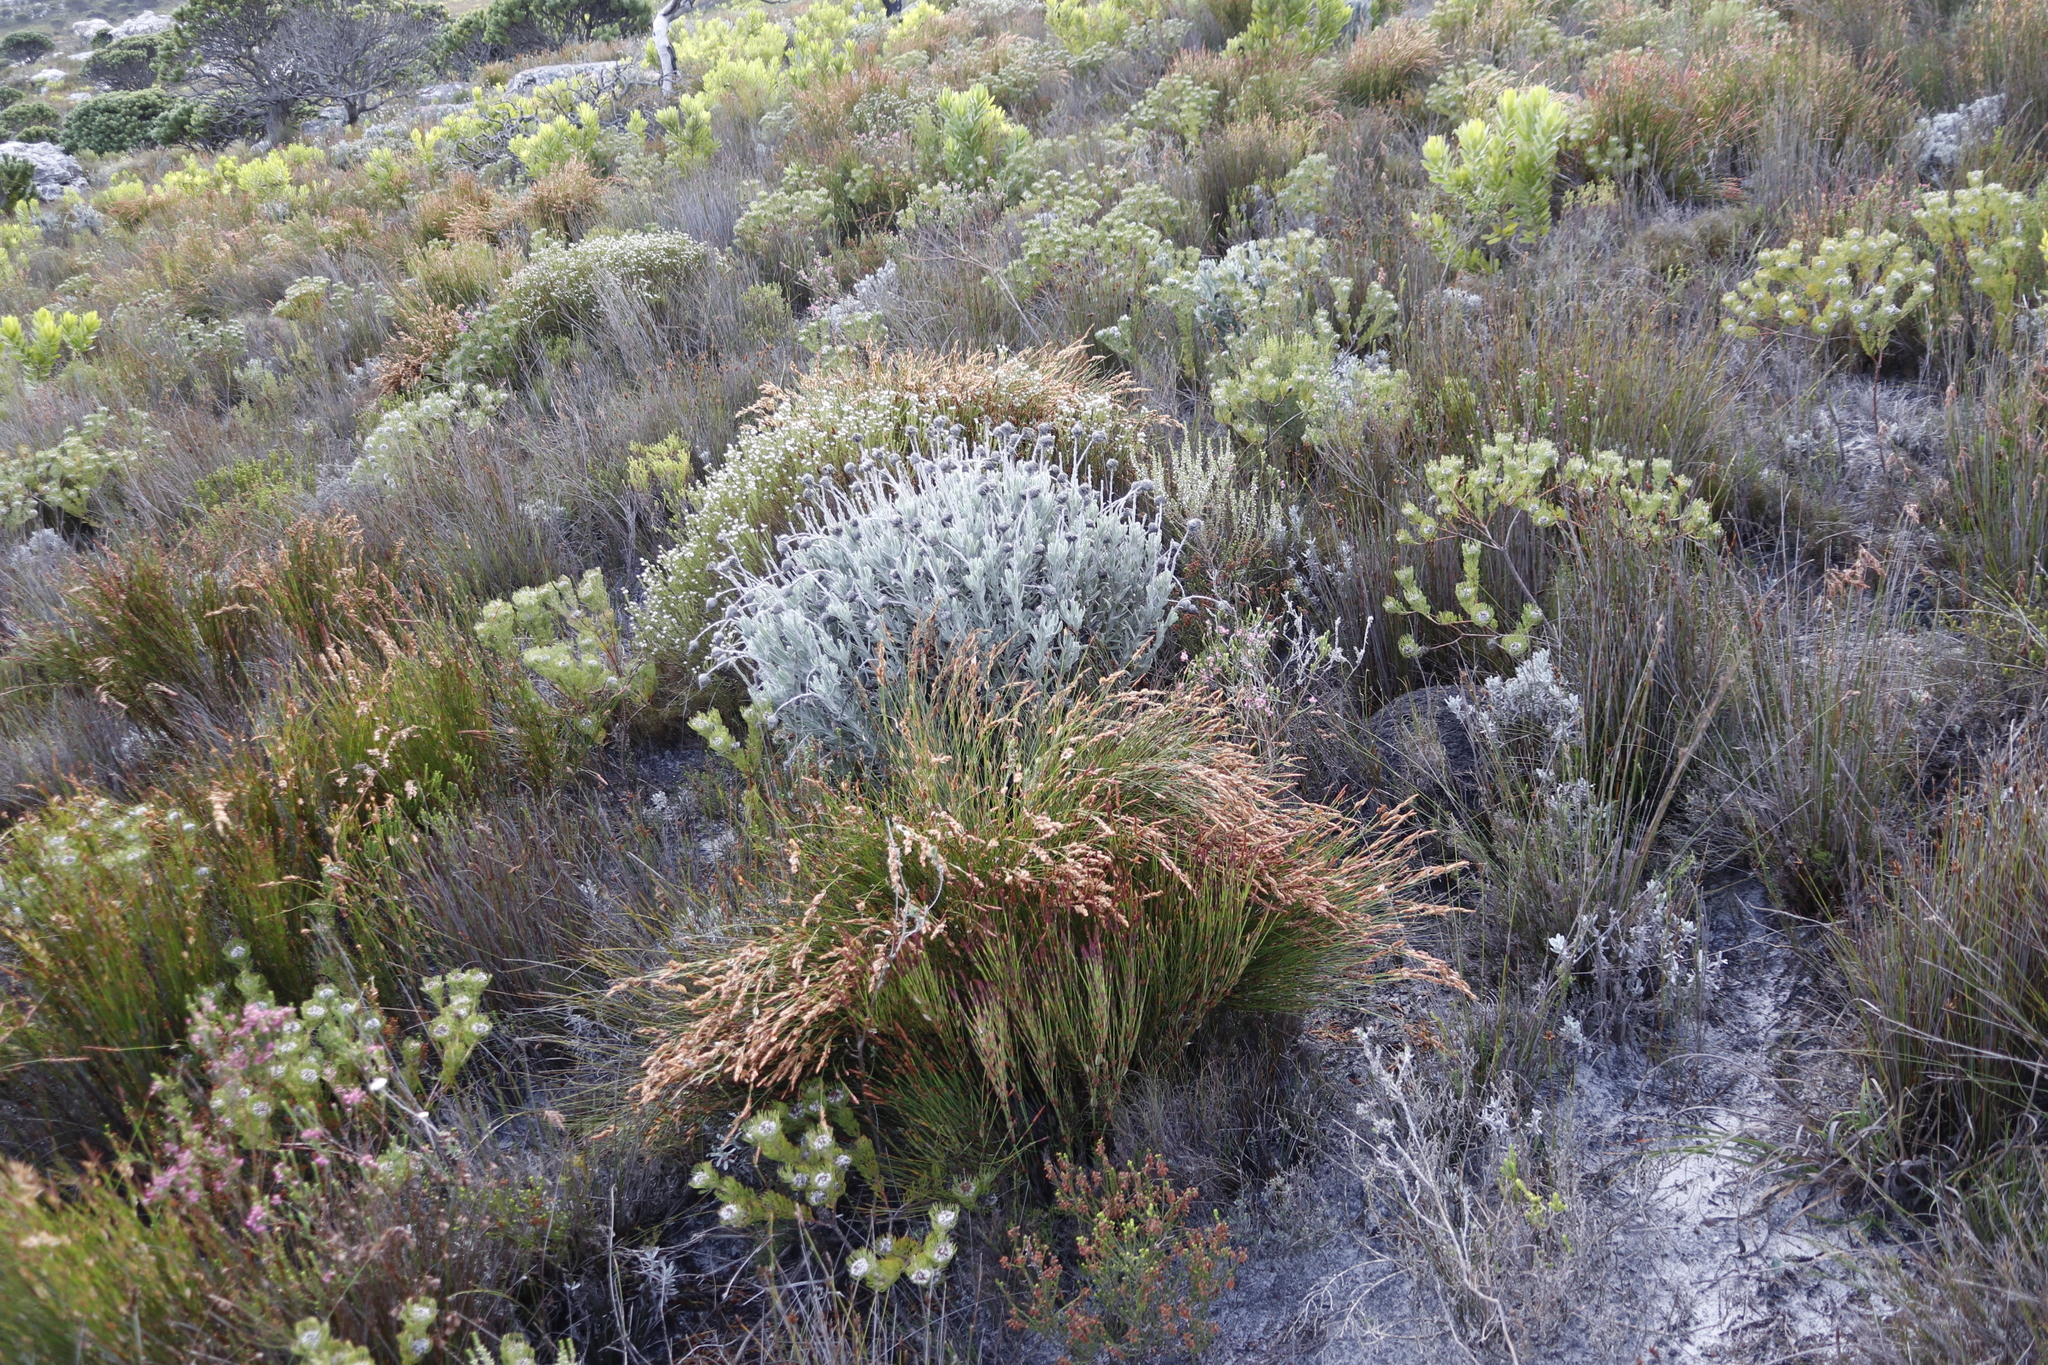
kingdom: Plantae
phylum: Tracheophyta
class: Liliopsida
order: Poales
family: Restionaceae
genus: Elegia
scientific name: Elegia stipularis
